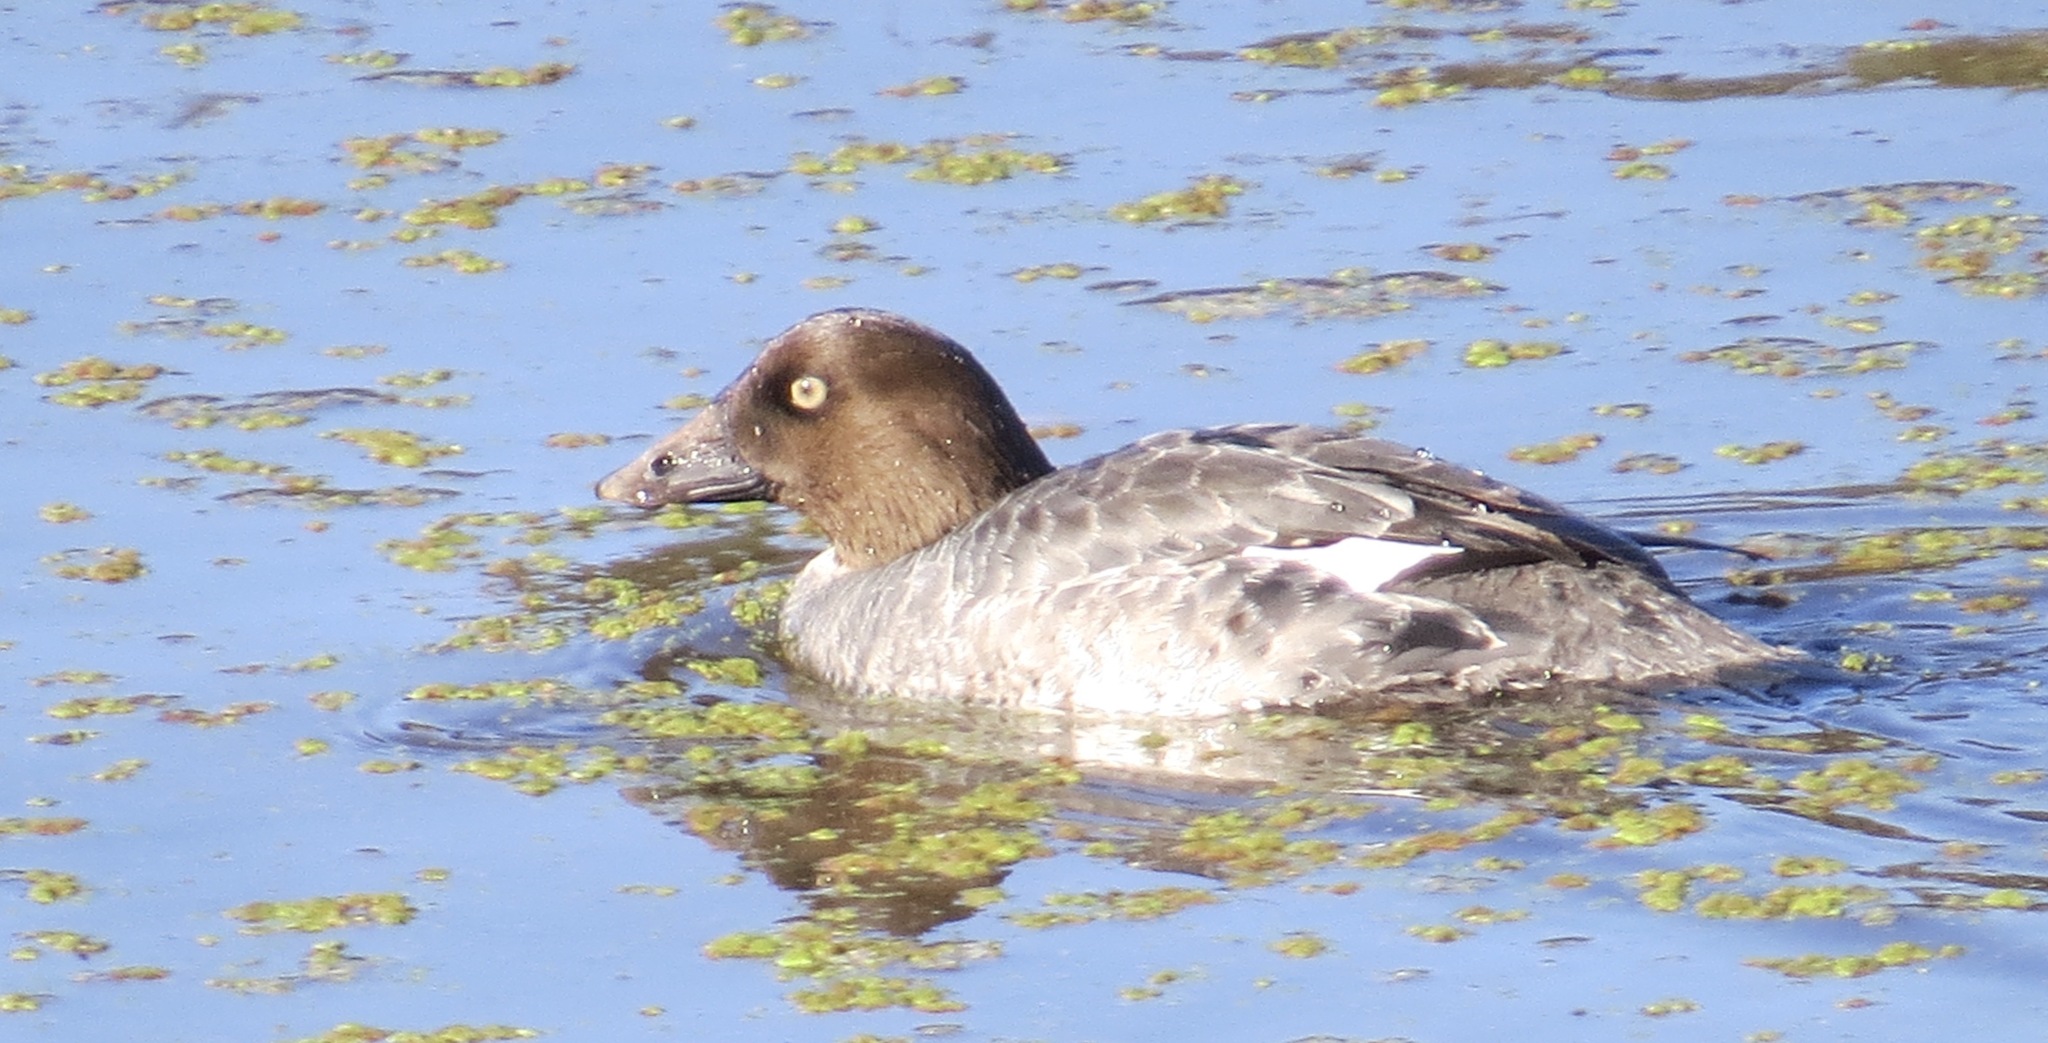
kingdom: Animalia
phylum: Chordata
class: Aves
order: Anseriformes
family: Anatidae
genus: Bucephala
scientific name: Bucephala clangula
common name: Common goldeneye
